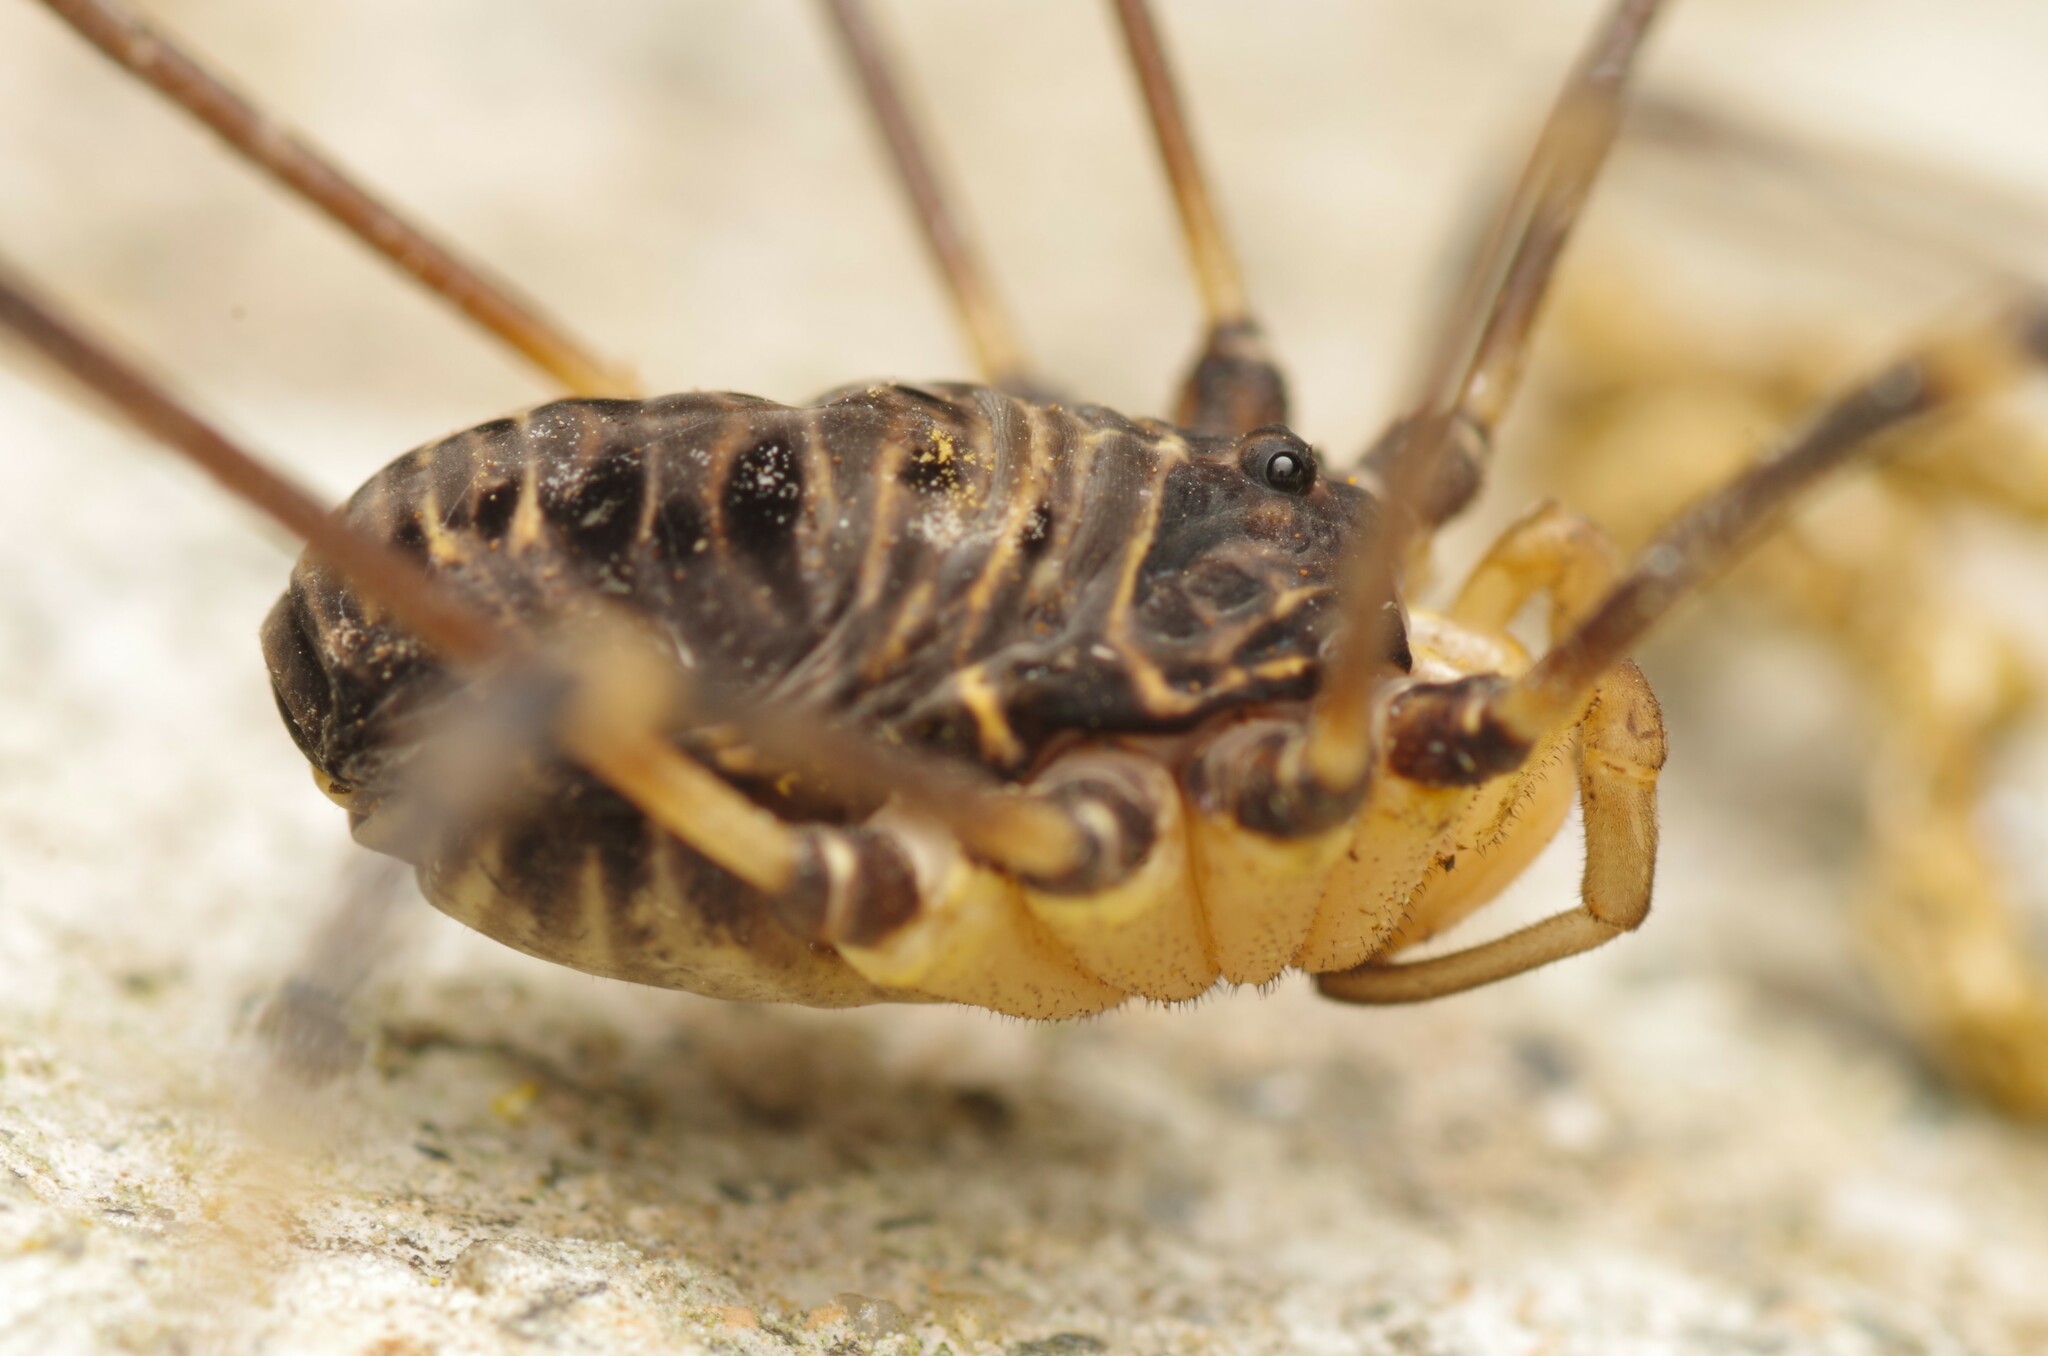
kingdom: Animalia
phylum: Arthropoda
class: Arachnida
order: Opiliones
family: Sclerosomatidae
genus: Gyas
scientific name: Gyas titanus
